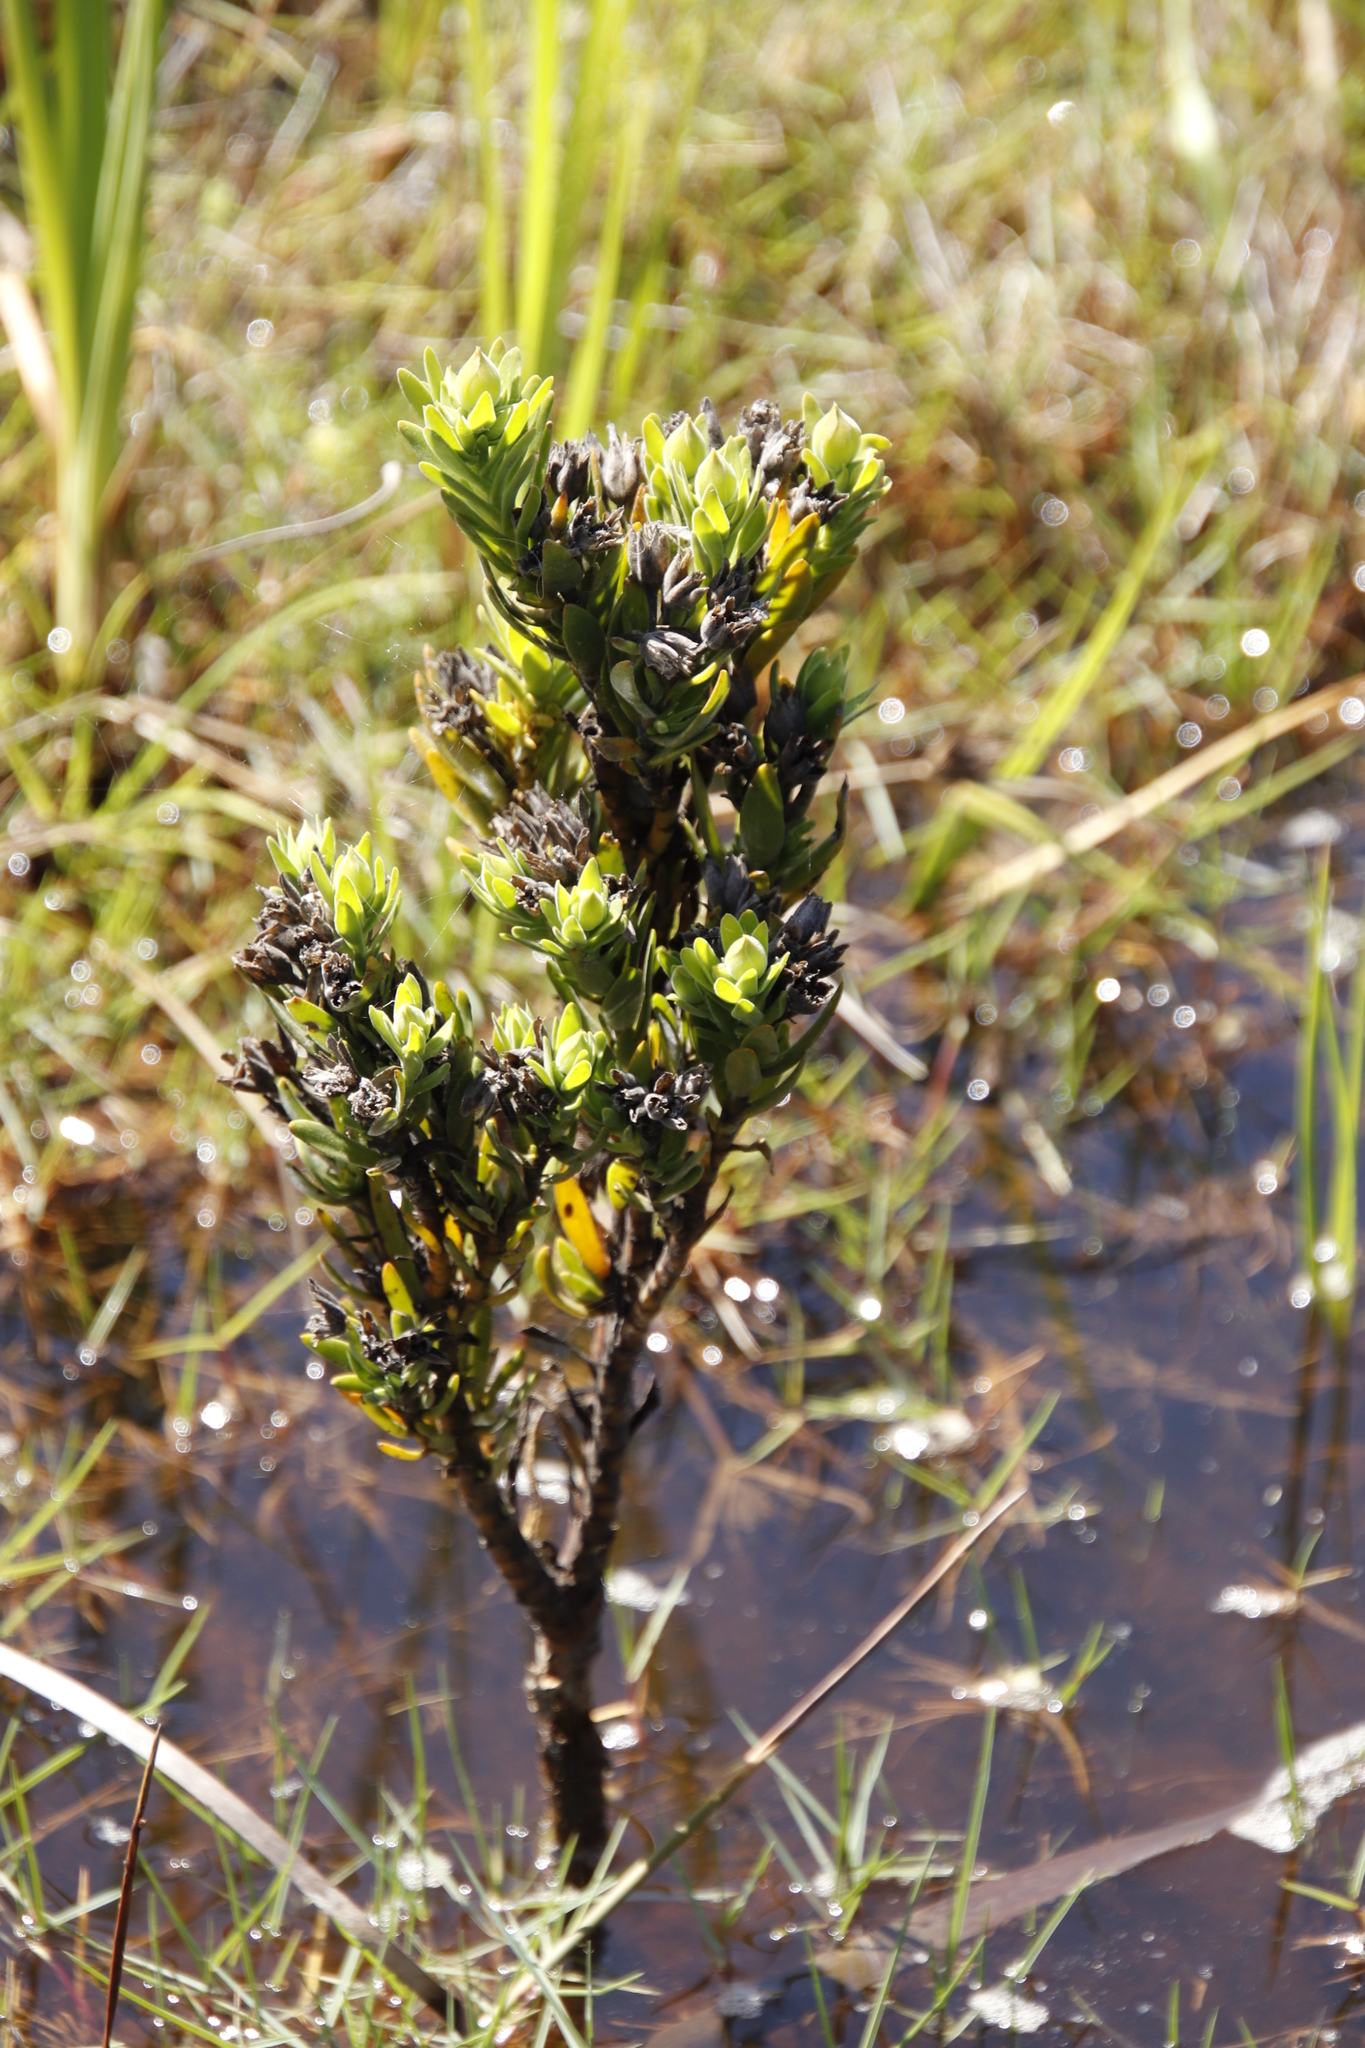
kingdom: Plantae
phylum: Tracheophyta
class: Magnoliopsida
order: Gentianales
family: Gentianaceae
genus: Orphium
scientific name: Orphium frutescens
